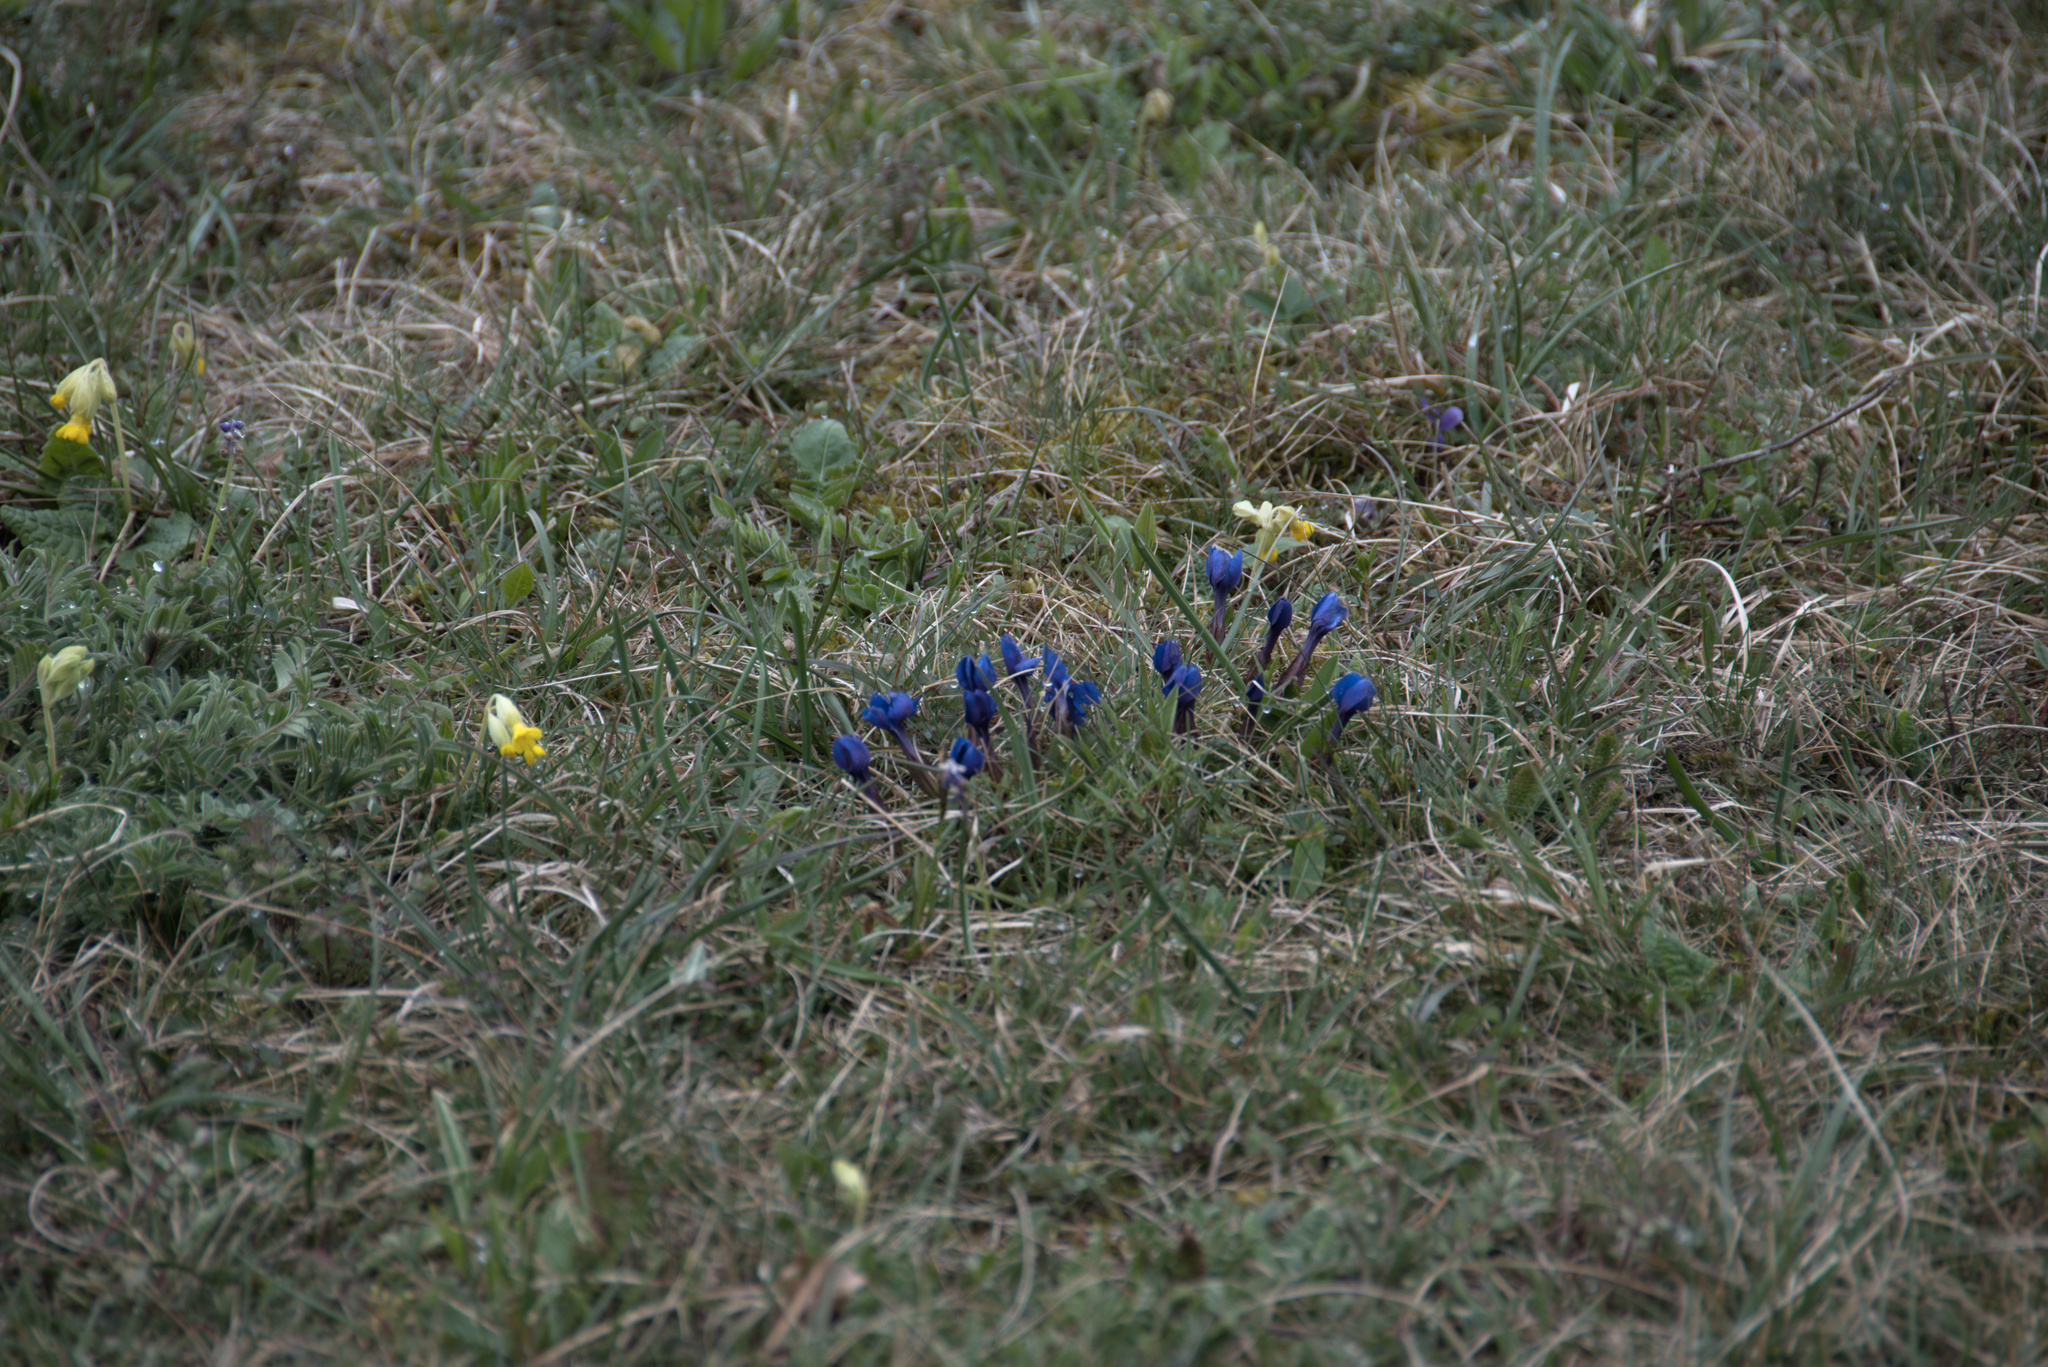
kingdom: Plantae
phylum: Tracheophyta
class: Magnoliopsida
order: Gentianales
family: Gentianaceae
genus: Gentiana
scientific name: Gentiana verna
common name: Spring gentian
